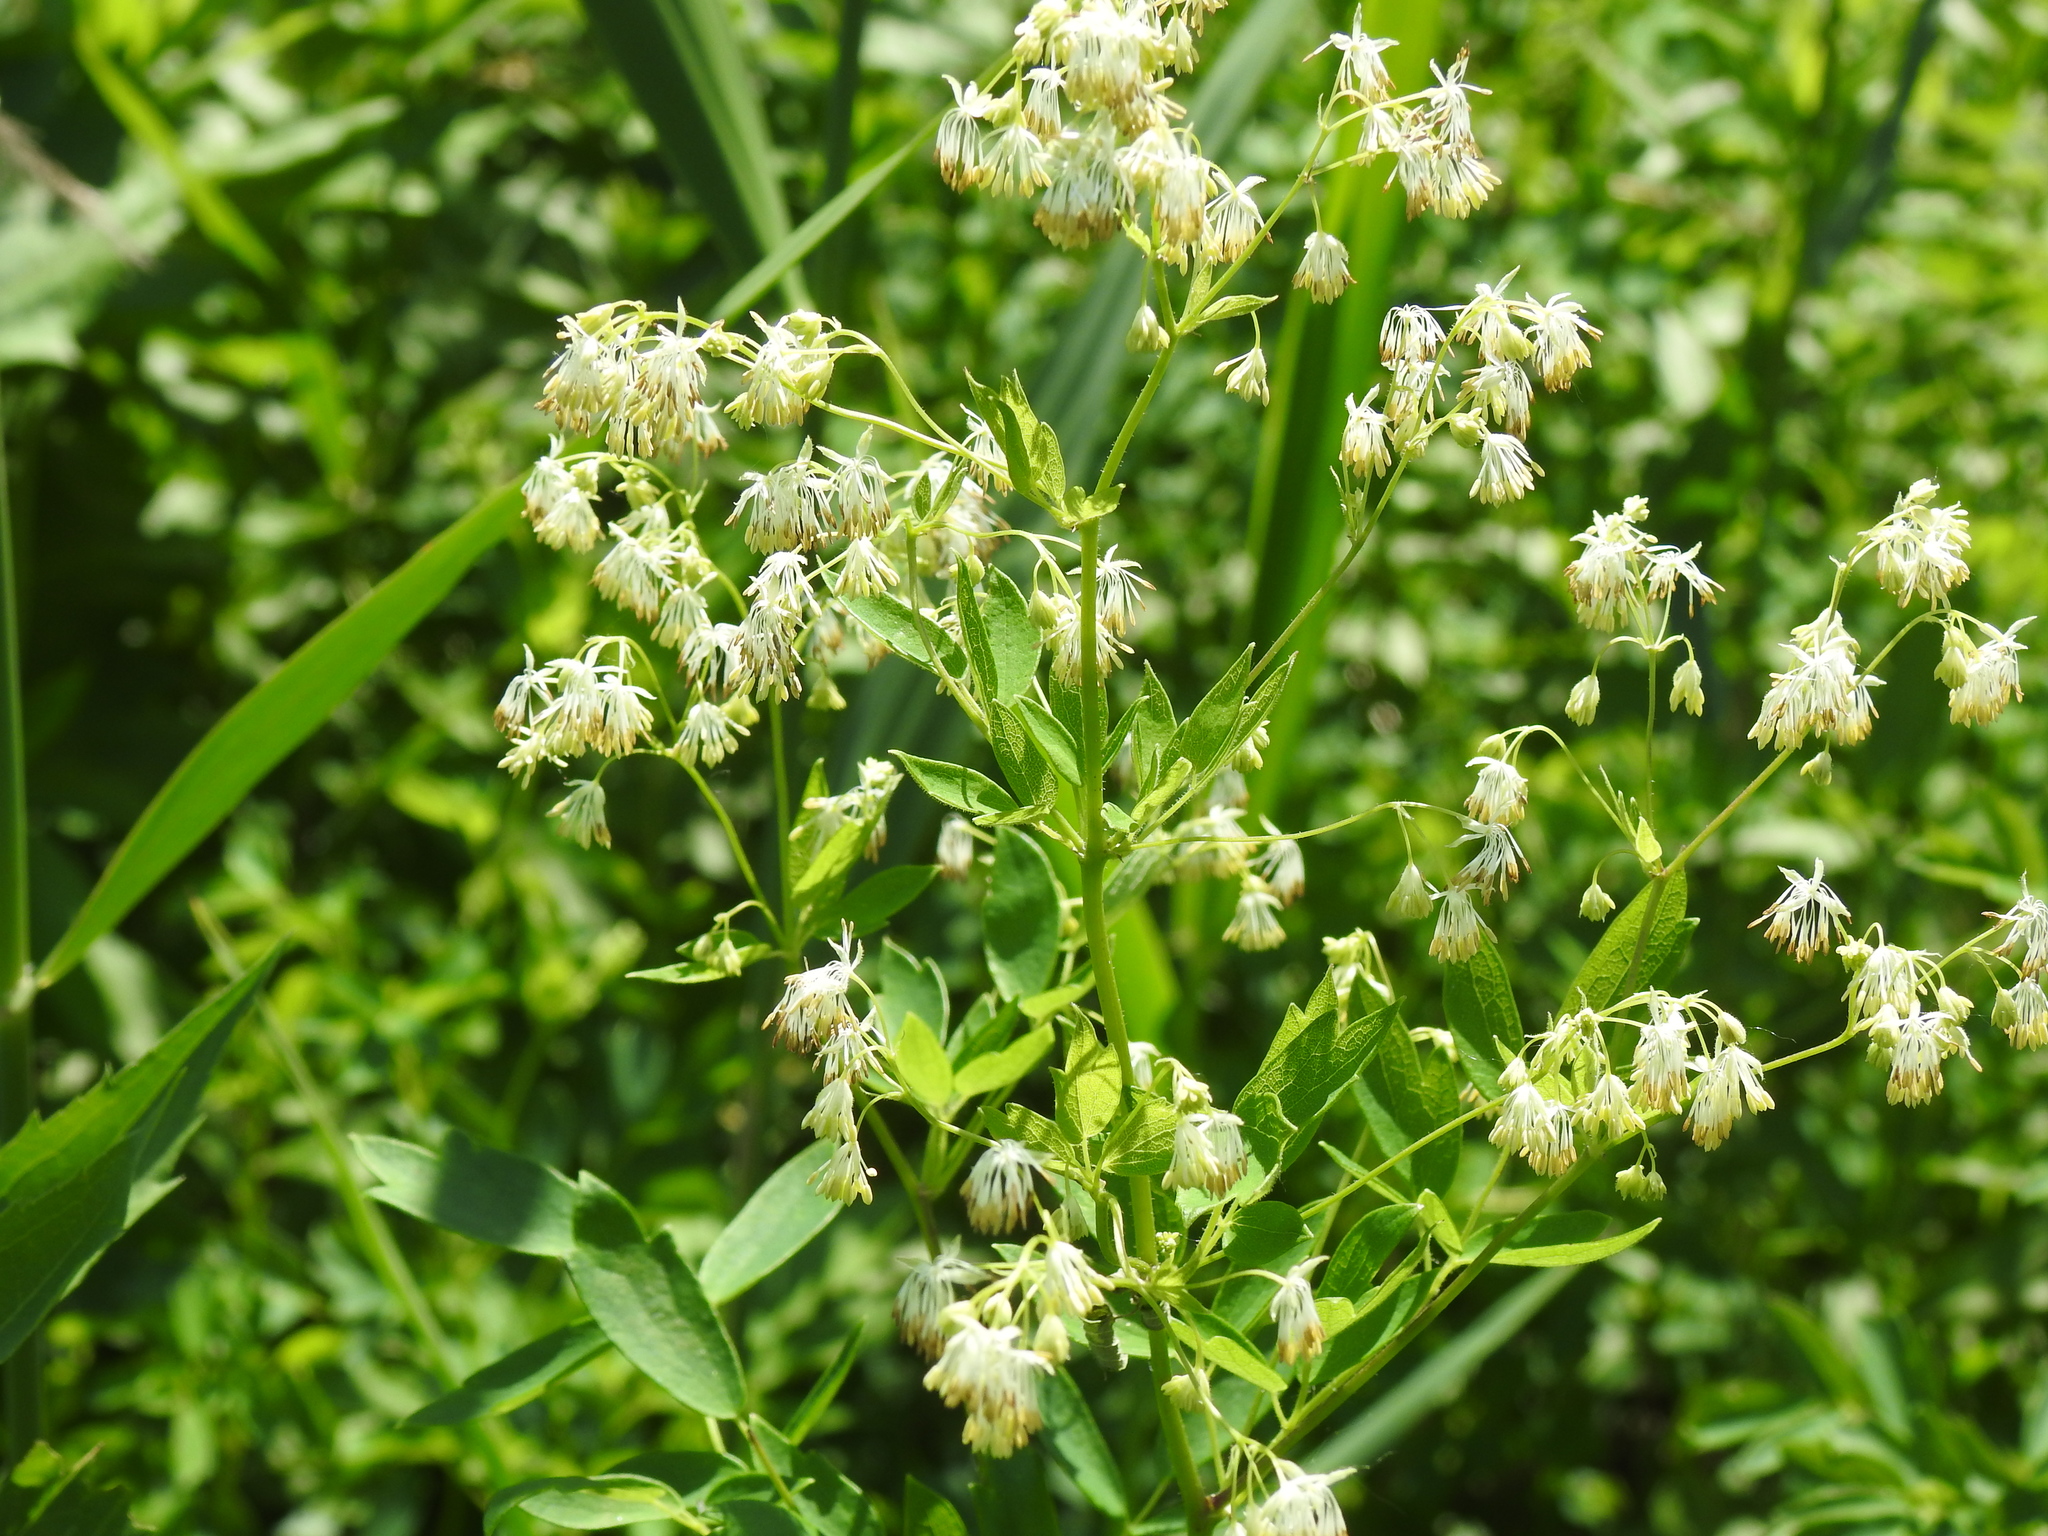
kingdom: Plantae
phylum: Tracheophyta
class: Magnoliopsida
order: Ranunculales
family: Ranunculaceae
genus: Thalictrum
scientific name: Thalictrum dasycarpum
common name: Purple meadow-rue
